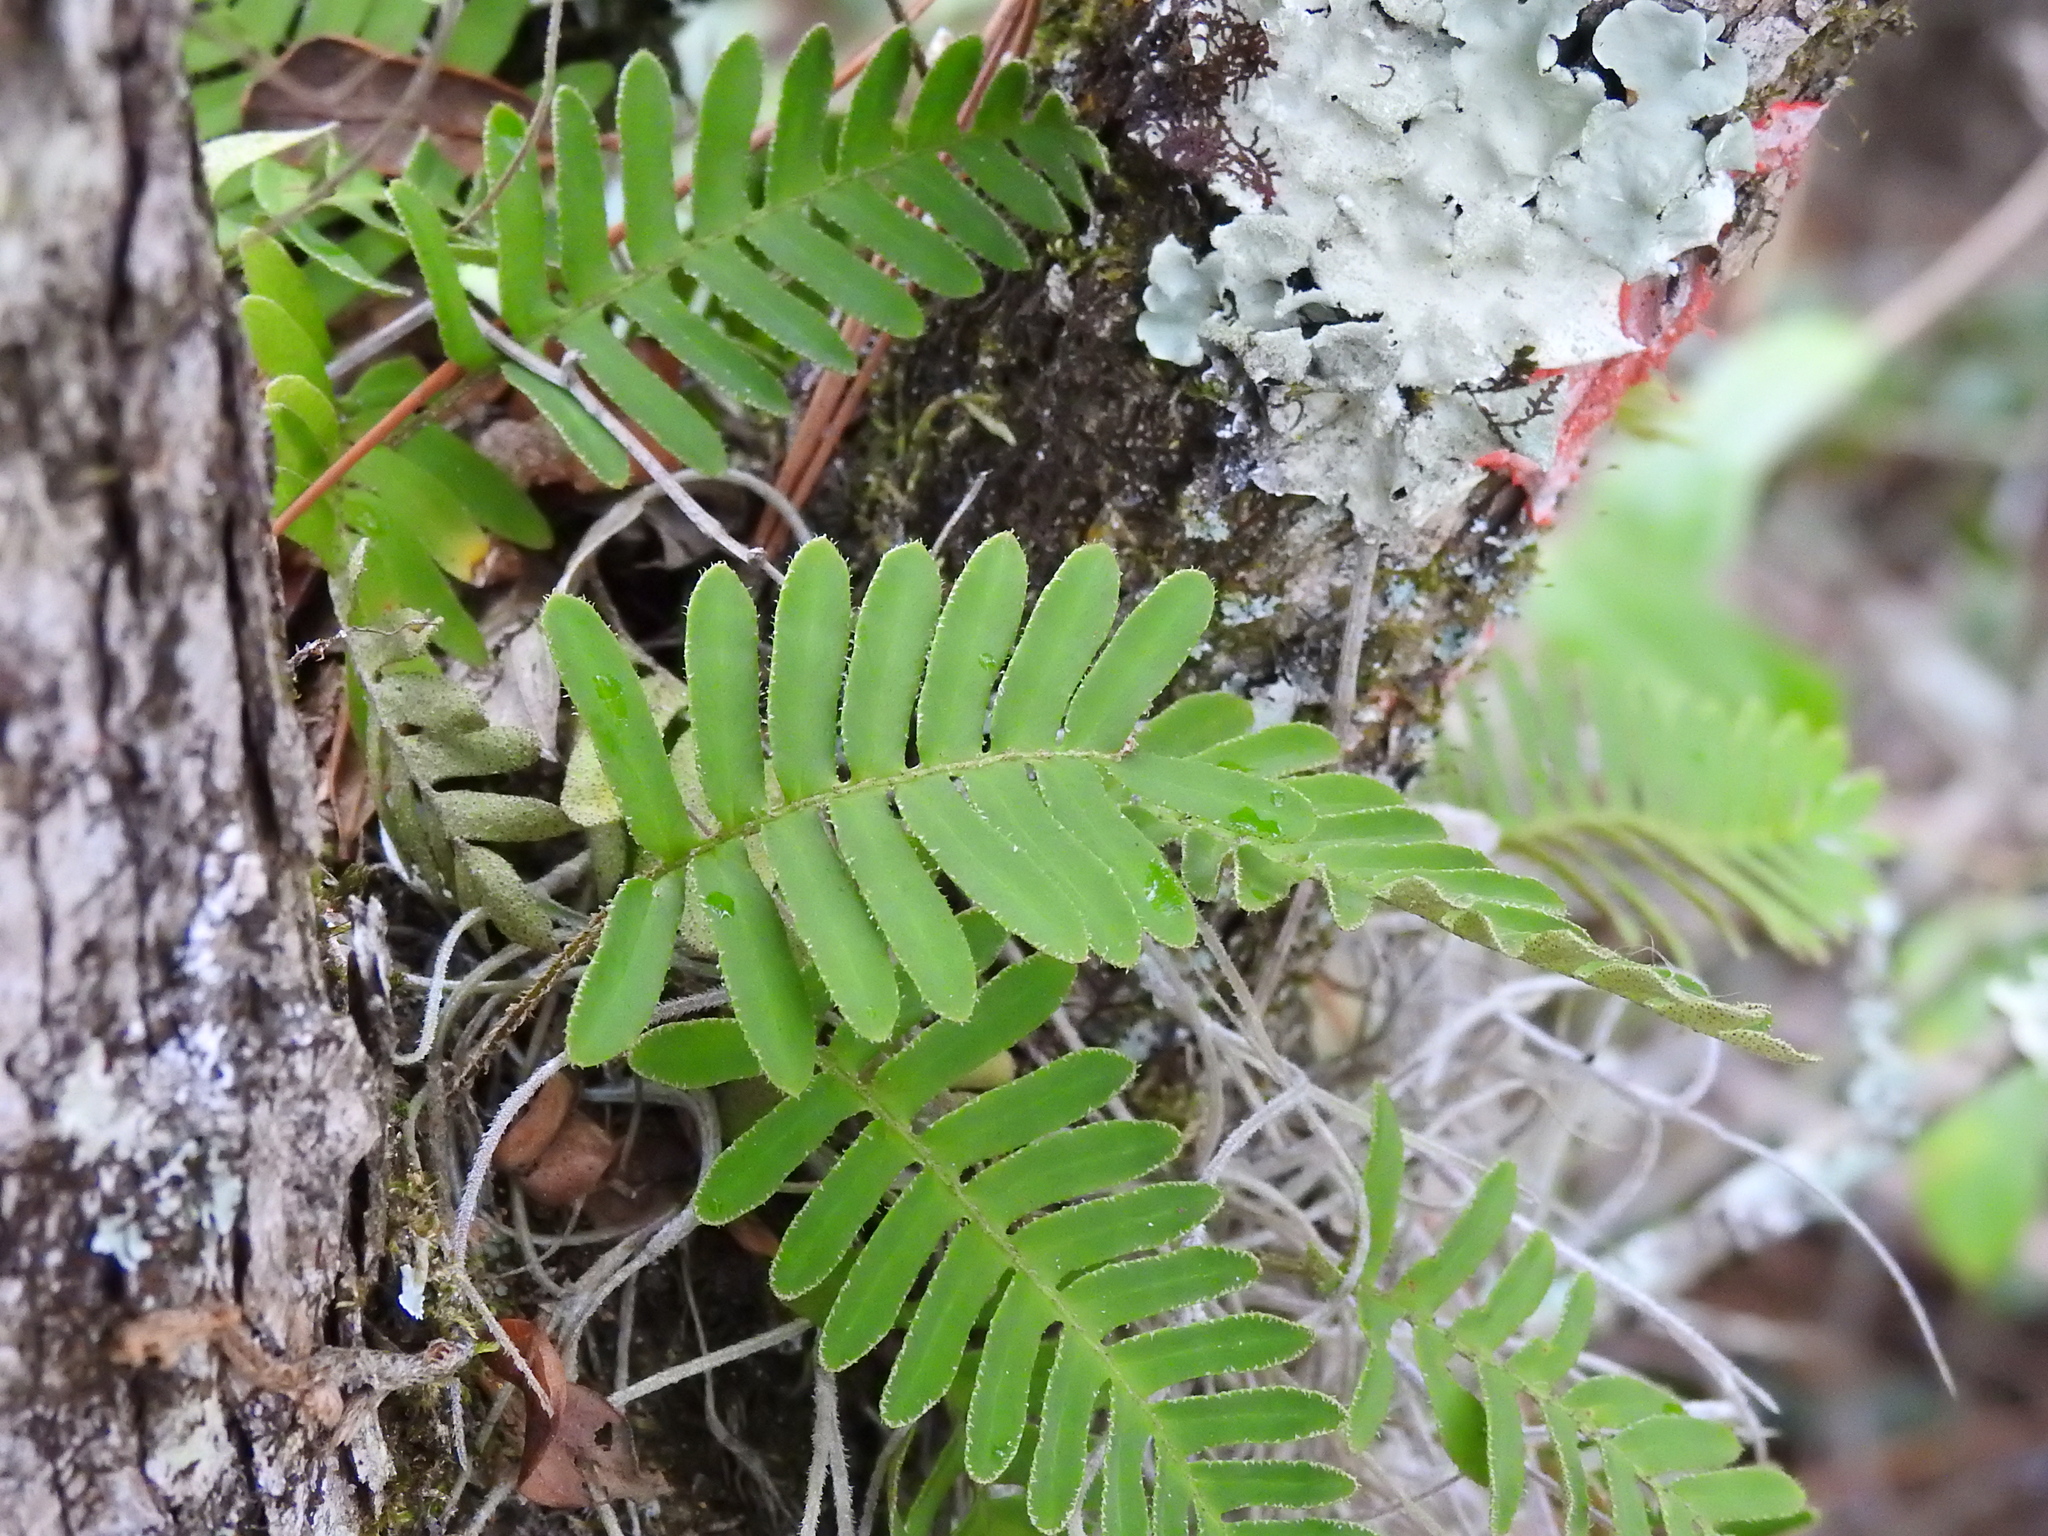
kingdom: Plantae
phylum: Tracheophyta
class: Polypodiopsida
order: Polypodiales
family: Polypodiaceae
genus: Pleopeltis
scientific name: Pleopeltis michauxiana
